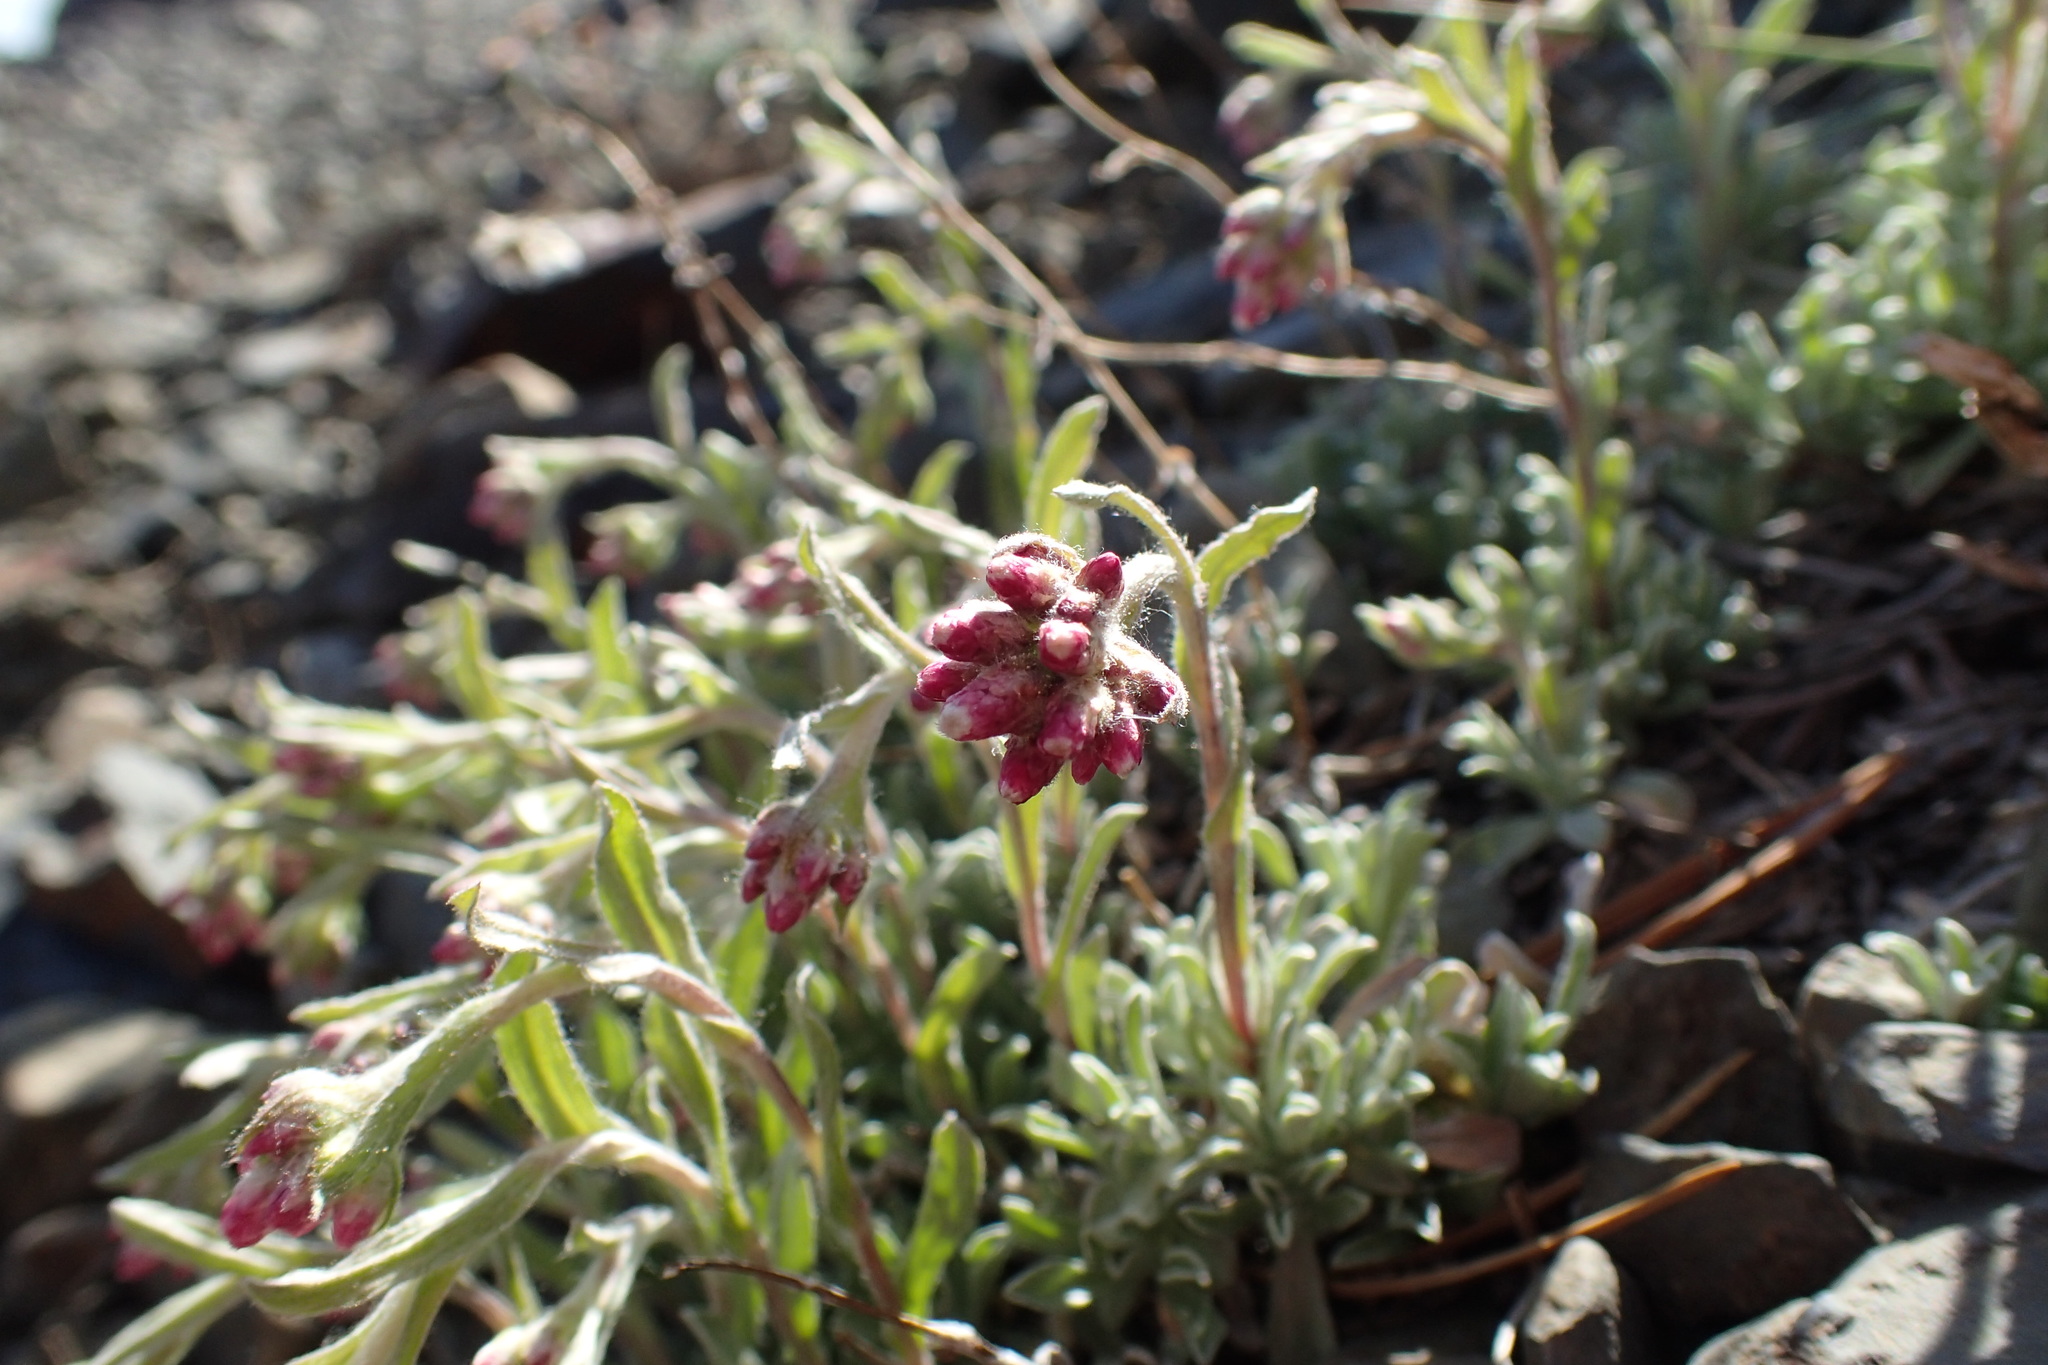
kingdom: Plantae
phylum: Tracheophyta
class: Magnoliopsida
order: Asterales
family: Asteraceae
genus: Antennaria
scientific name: Antennaria rosea
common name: Rosy pussytoes
